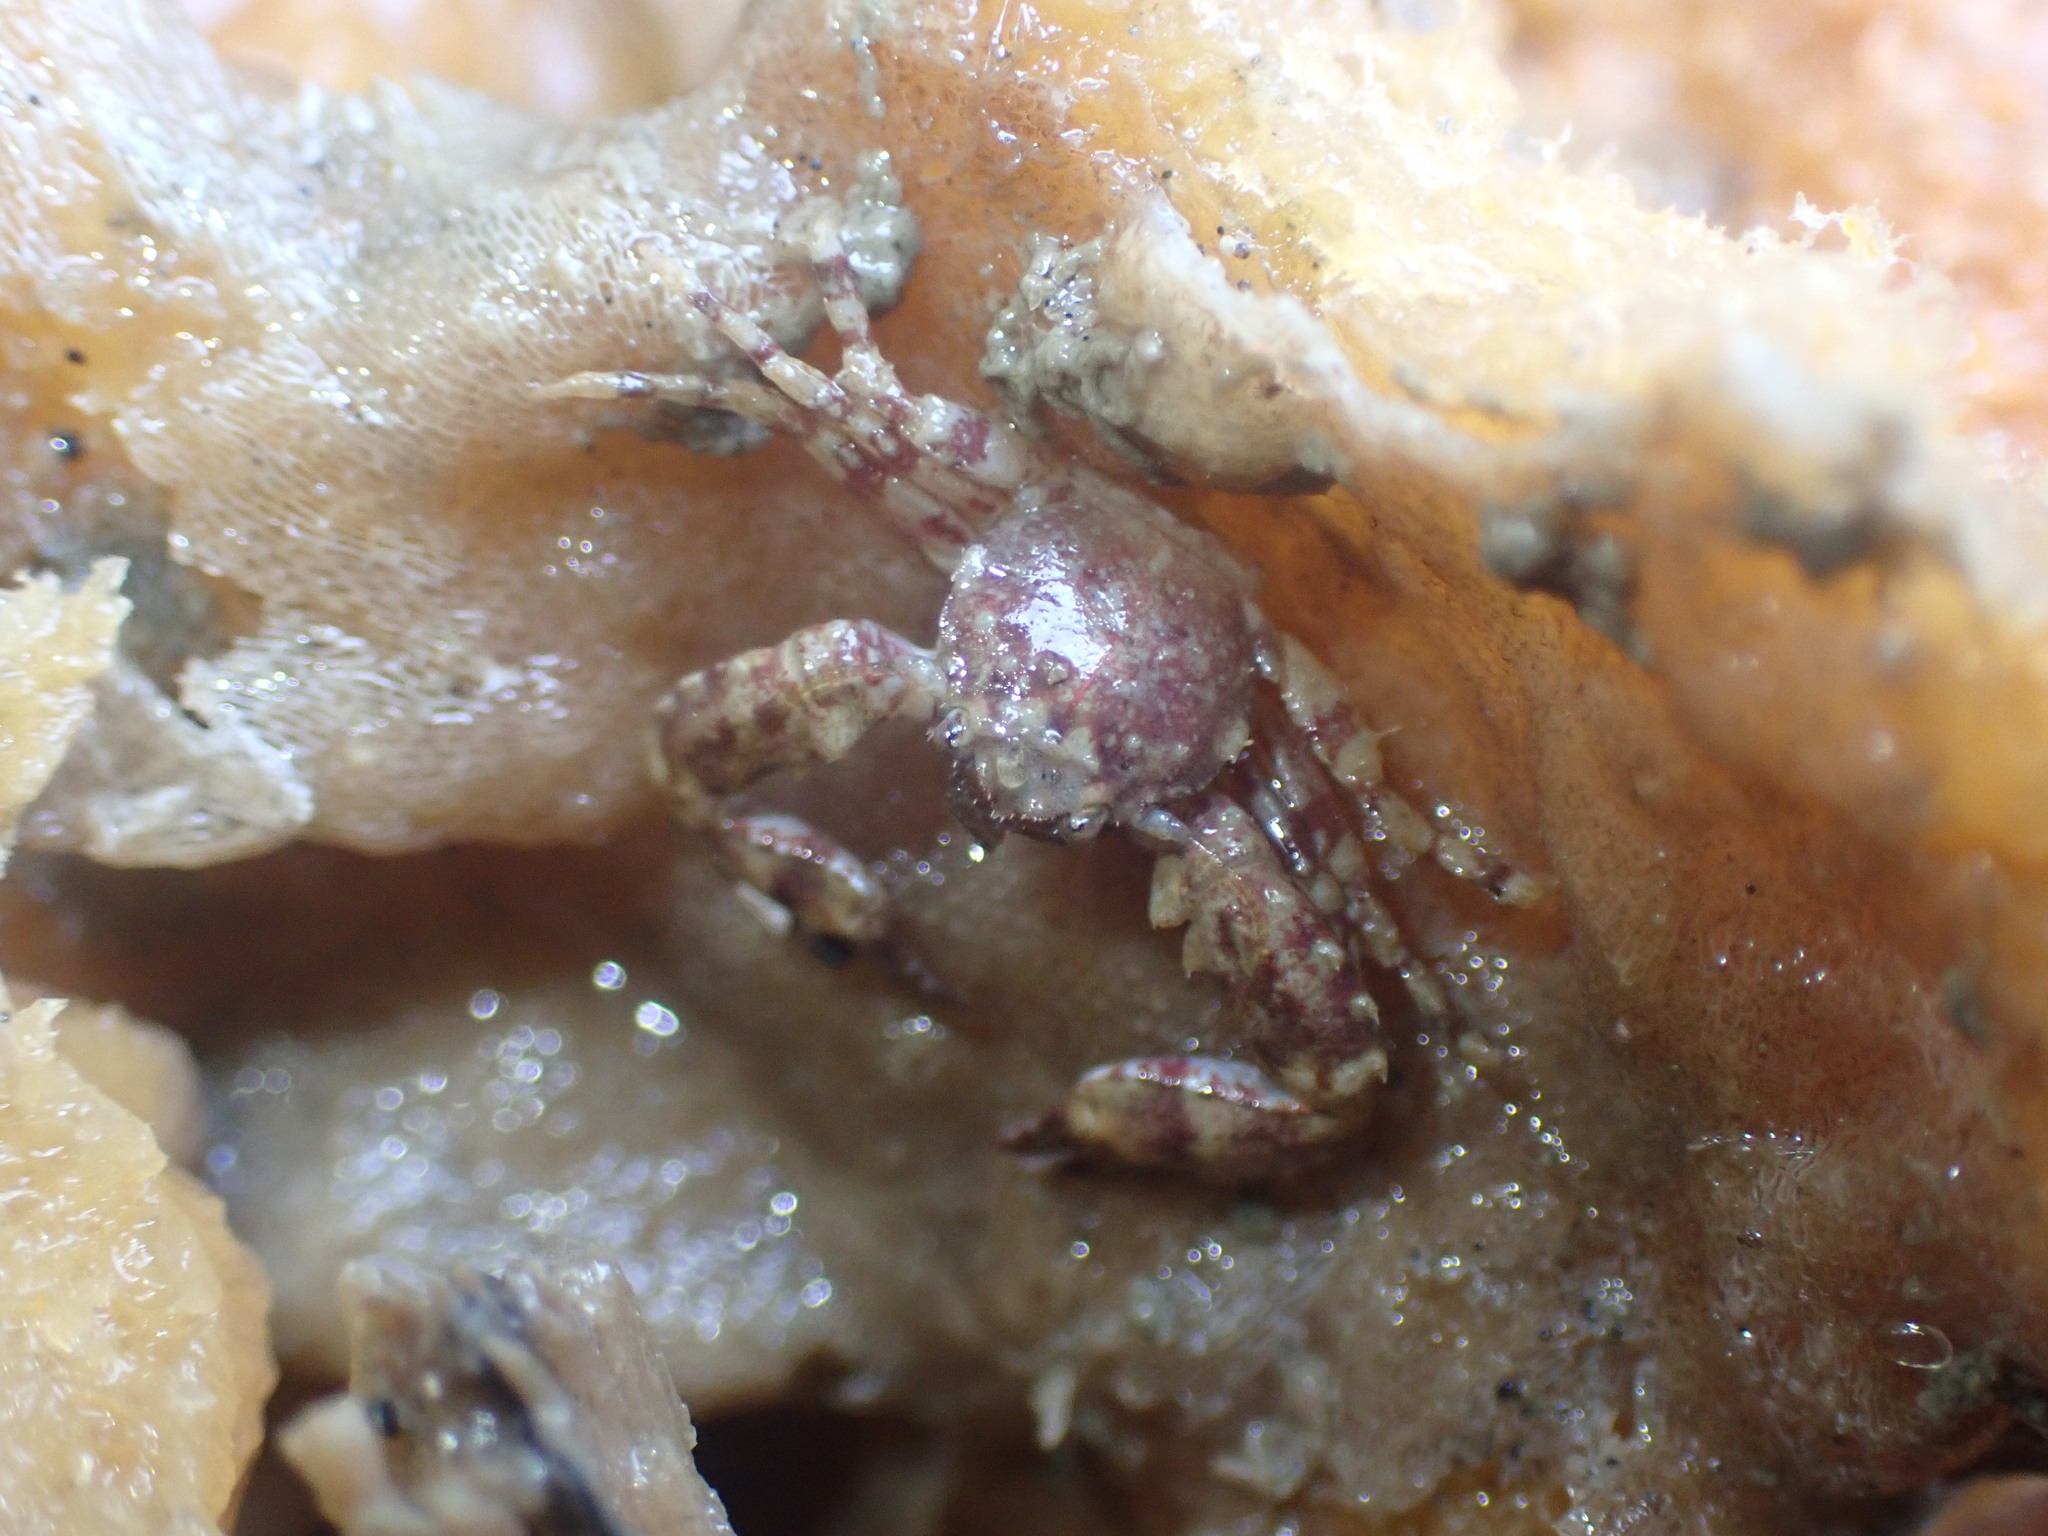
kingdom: Animalia
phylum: Arthropoda
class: Malacostraca
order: Decapoda
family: Porcellanidae
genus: Petrolisthes
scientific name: Petrolisthes novaezelandiae
